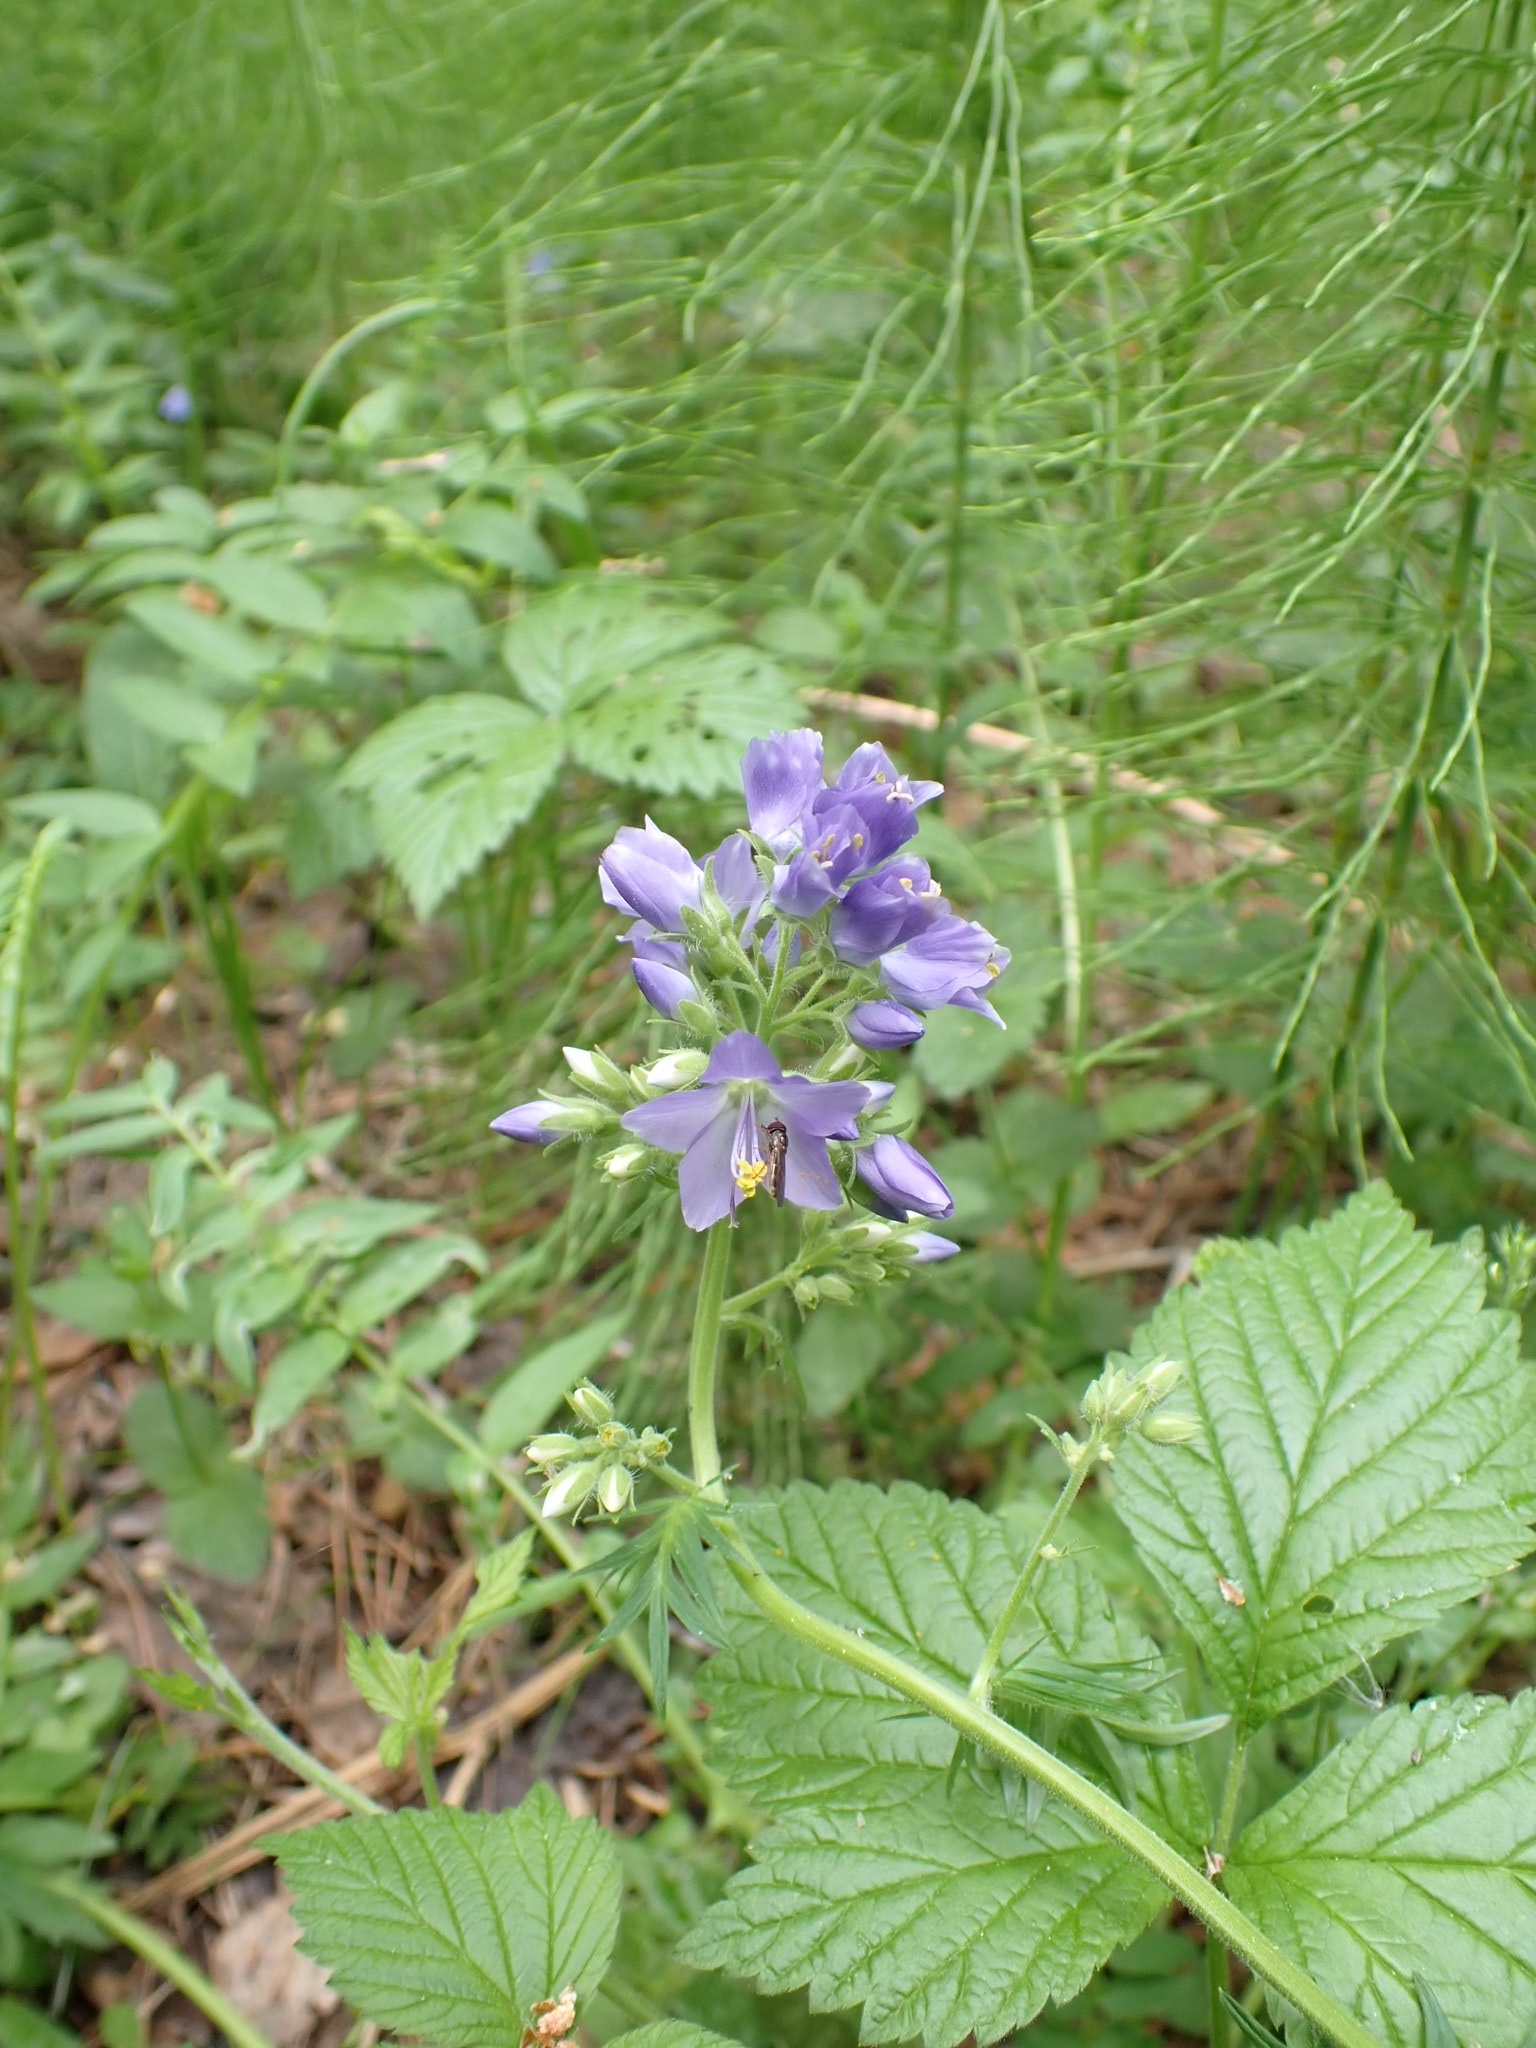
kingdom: Plantae
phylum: Tracheophyta
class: Magnoliopsida
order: Ericales
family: Polemoniaceae
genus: Polemonium
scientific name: Polemonium caeruleum
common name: Jacob's-ladder
